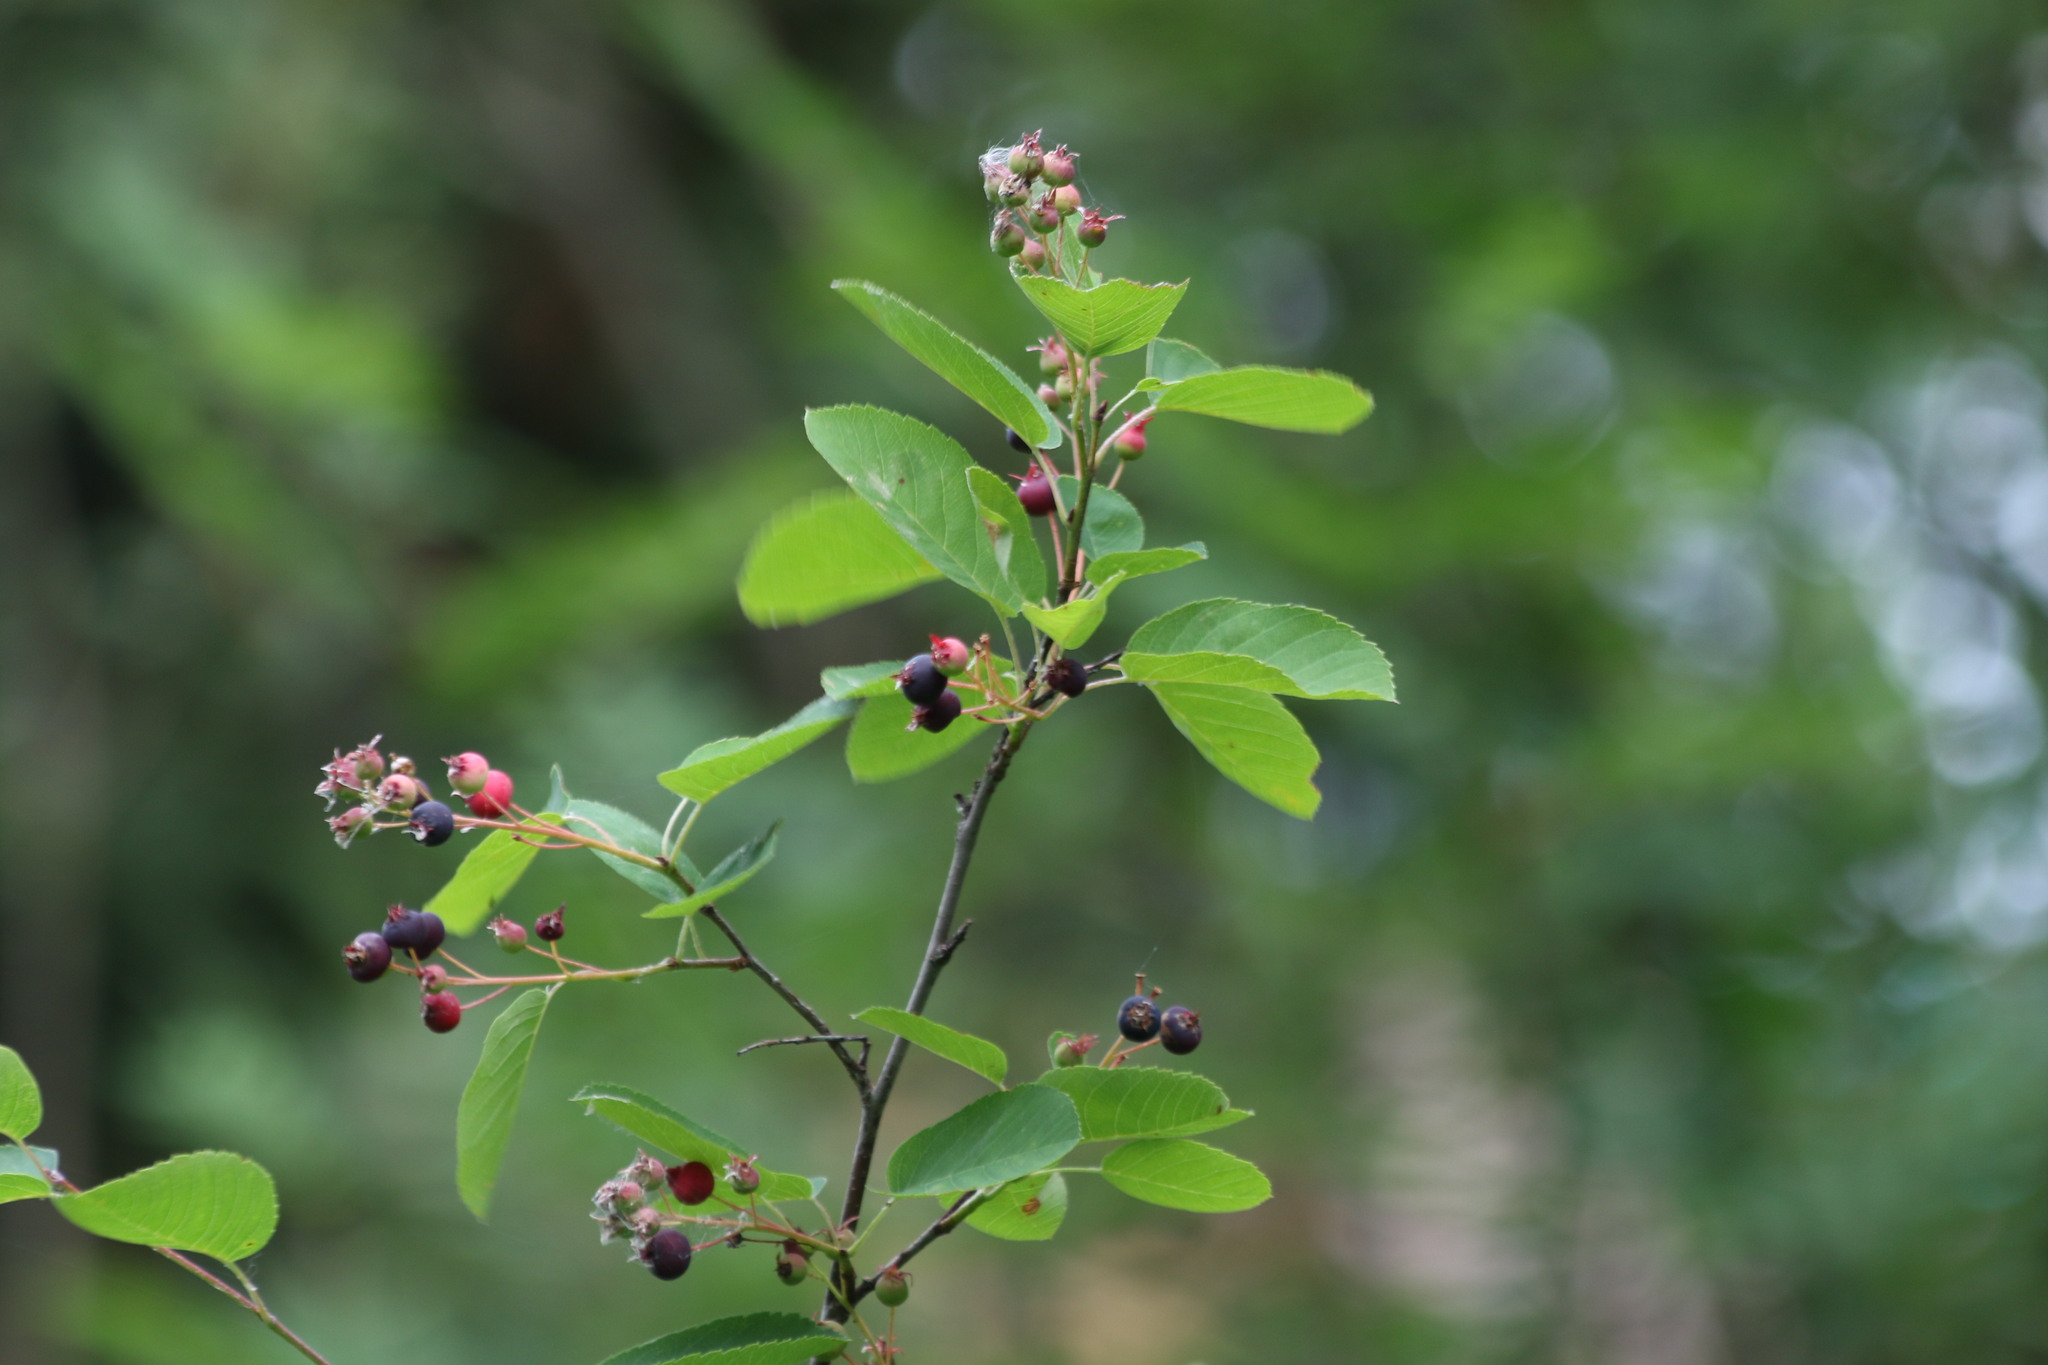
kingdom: Plantae
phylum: Tracheophyta
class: Magnoliopsida
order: Rosales
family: Rosaceae
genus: Amelanchier
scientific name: Amelanchier
